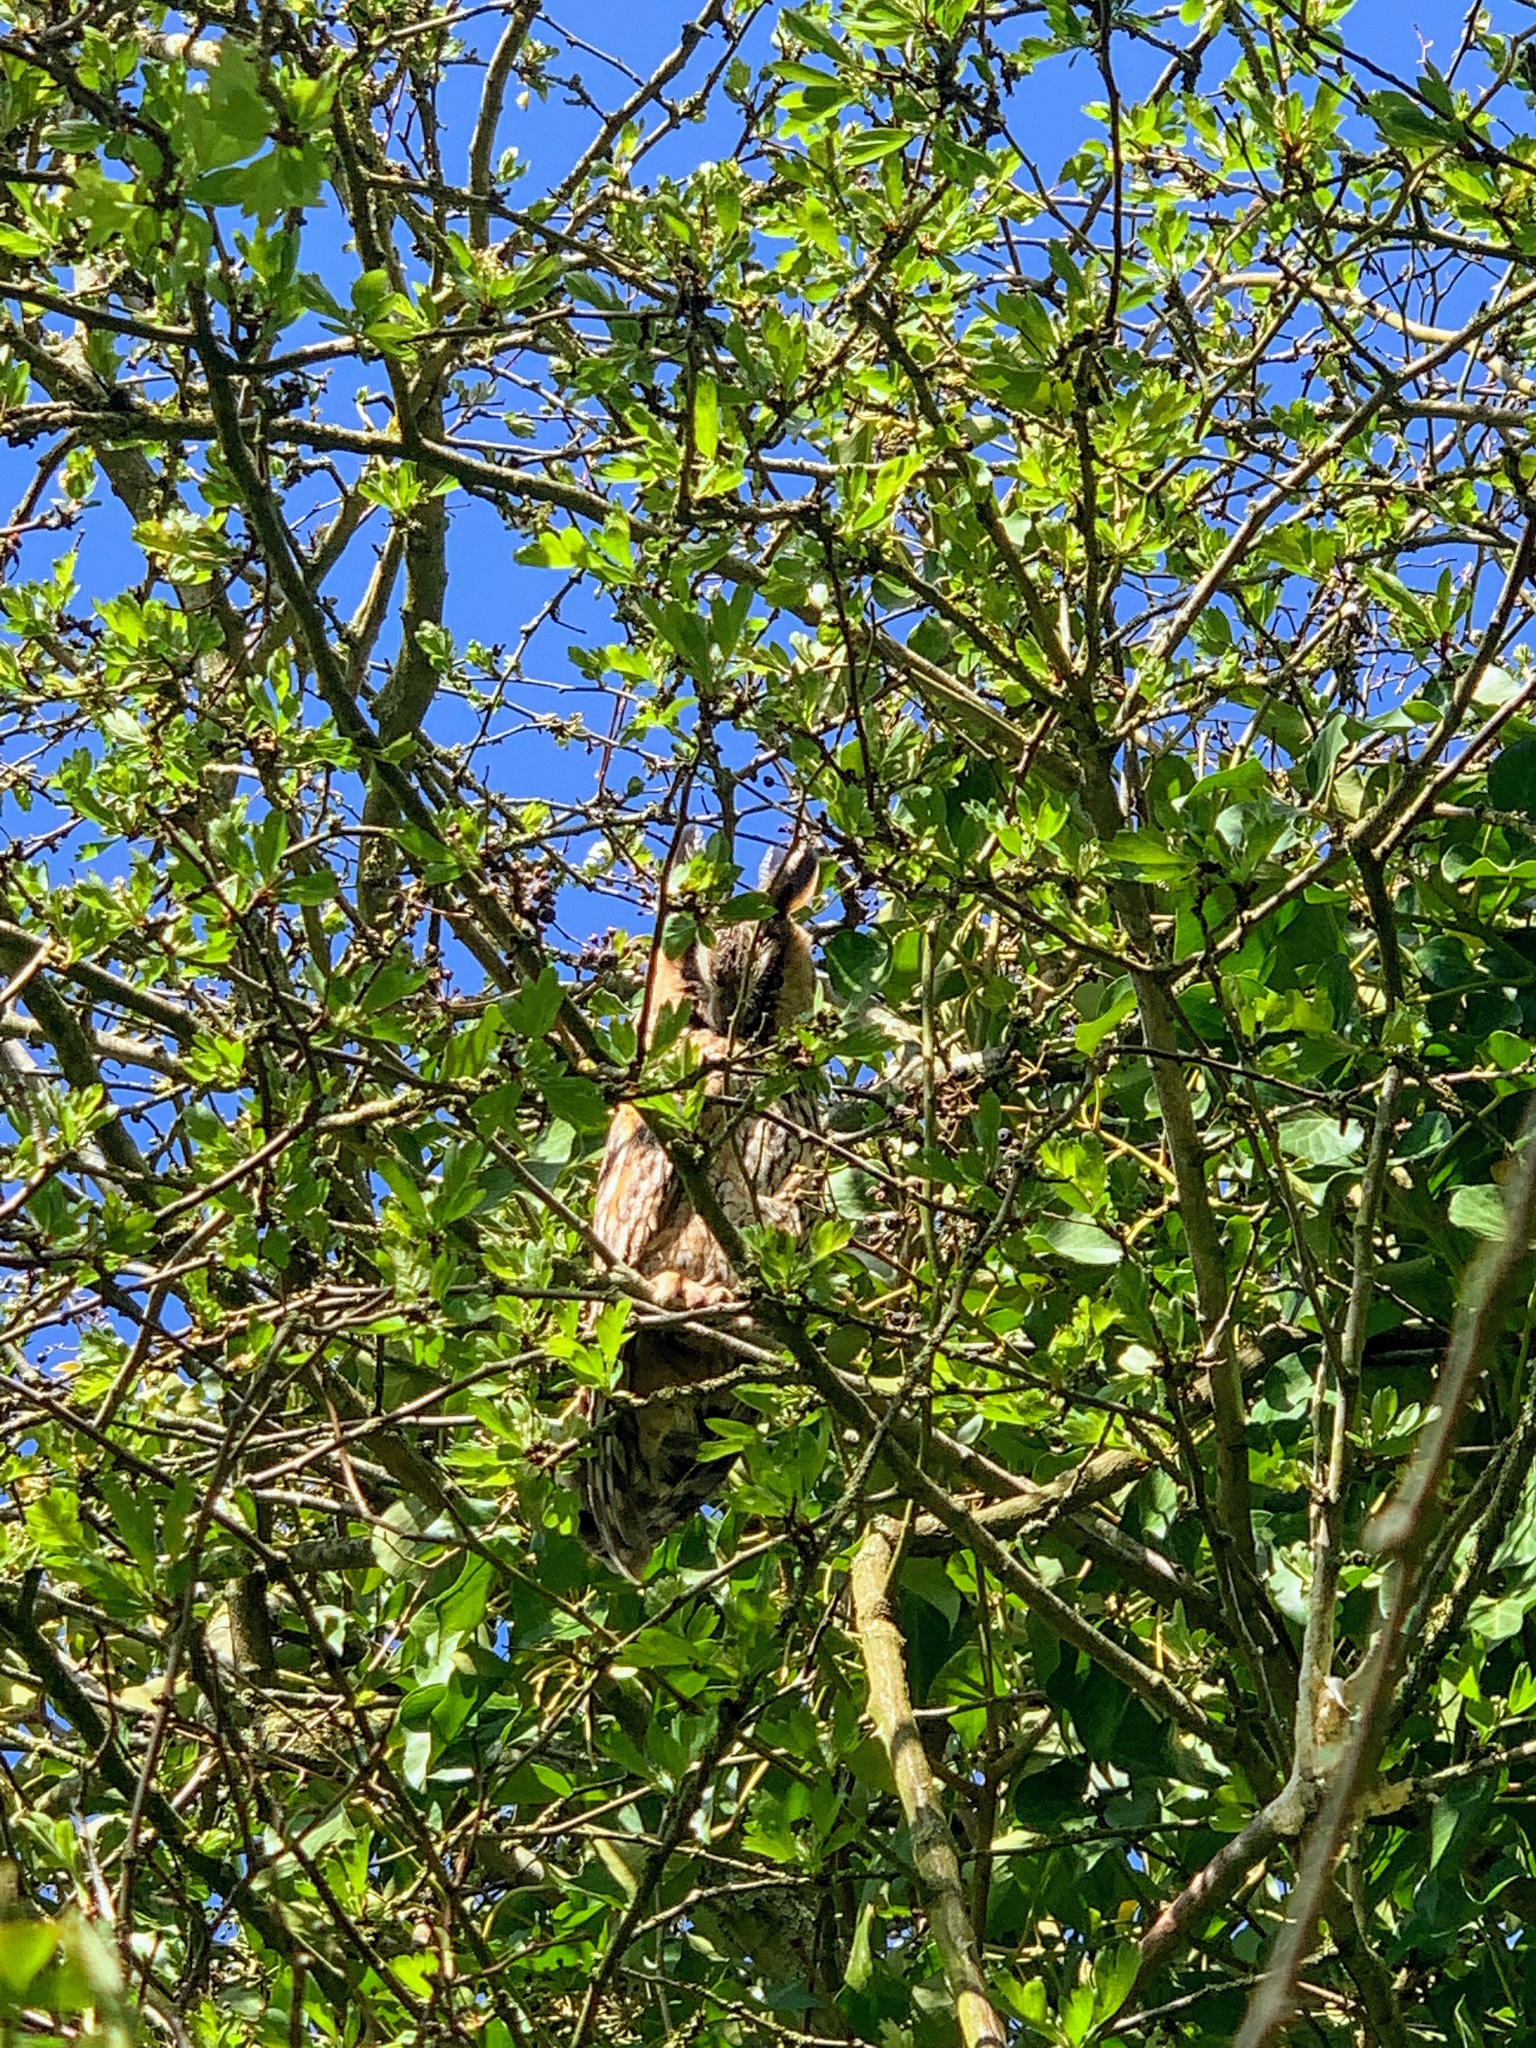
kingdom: Animalia
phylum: Chordata
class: Aves
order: Strigiformes
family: Strigidae
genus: Asio
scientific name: Asio otus
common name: Long-eared owl
